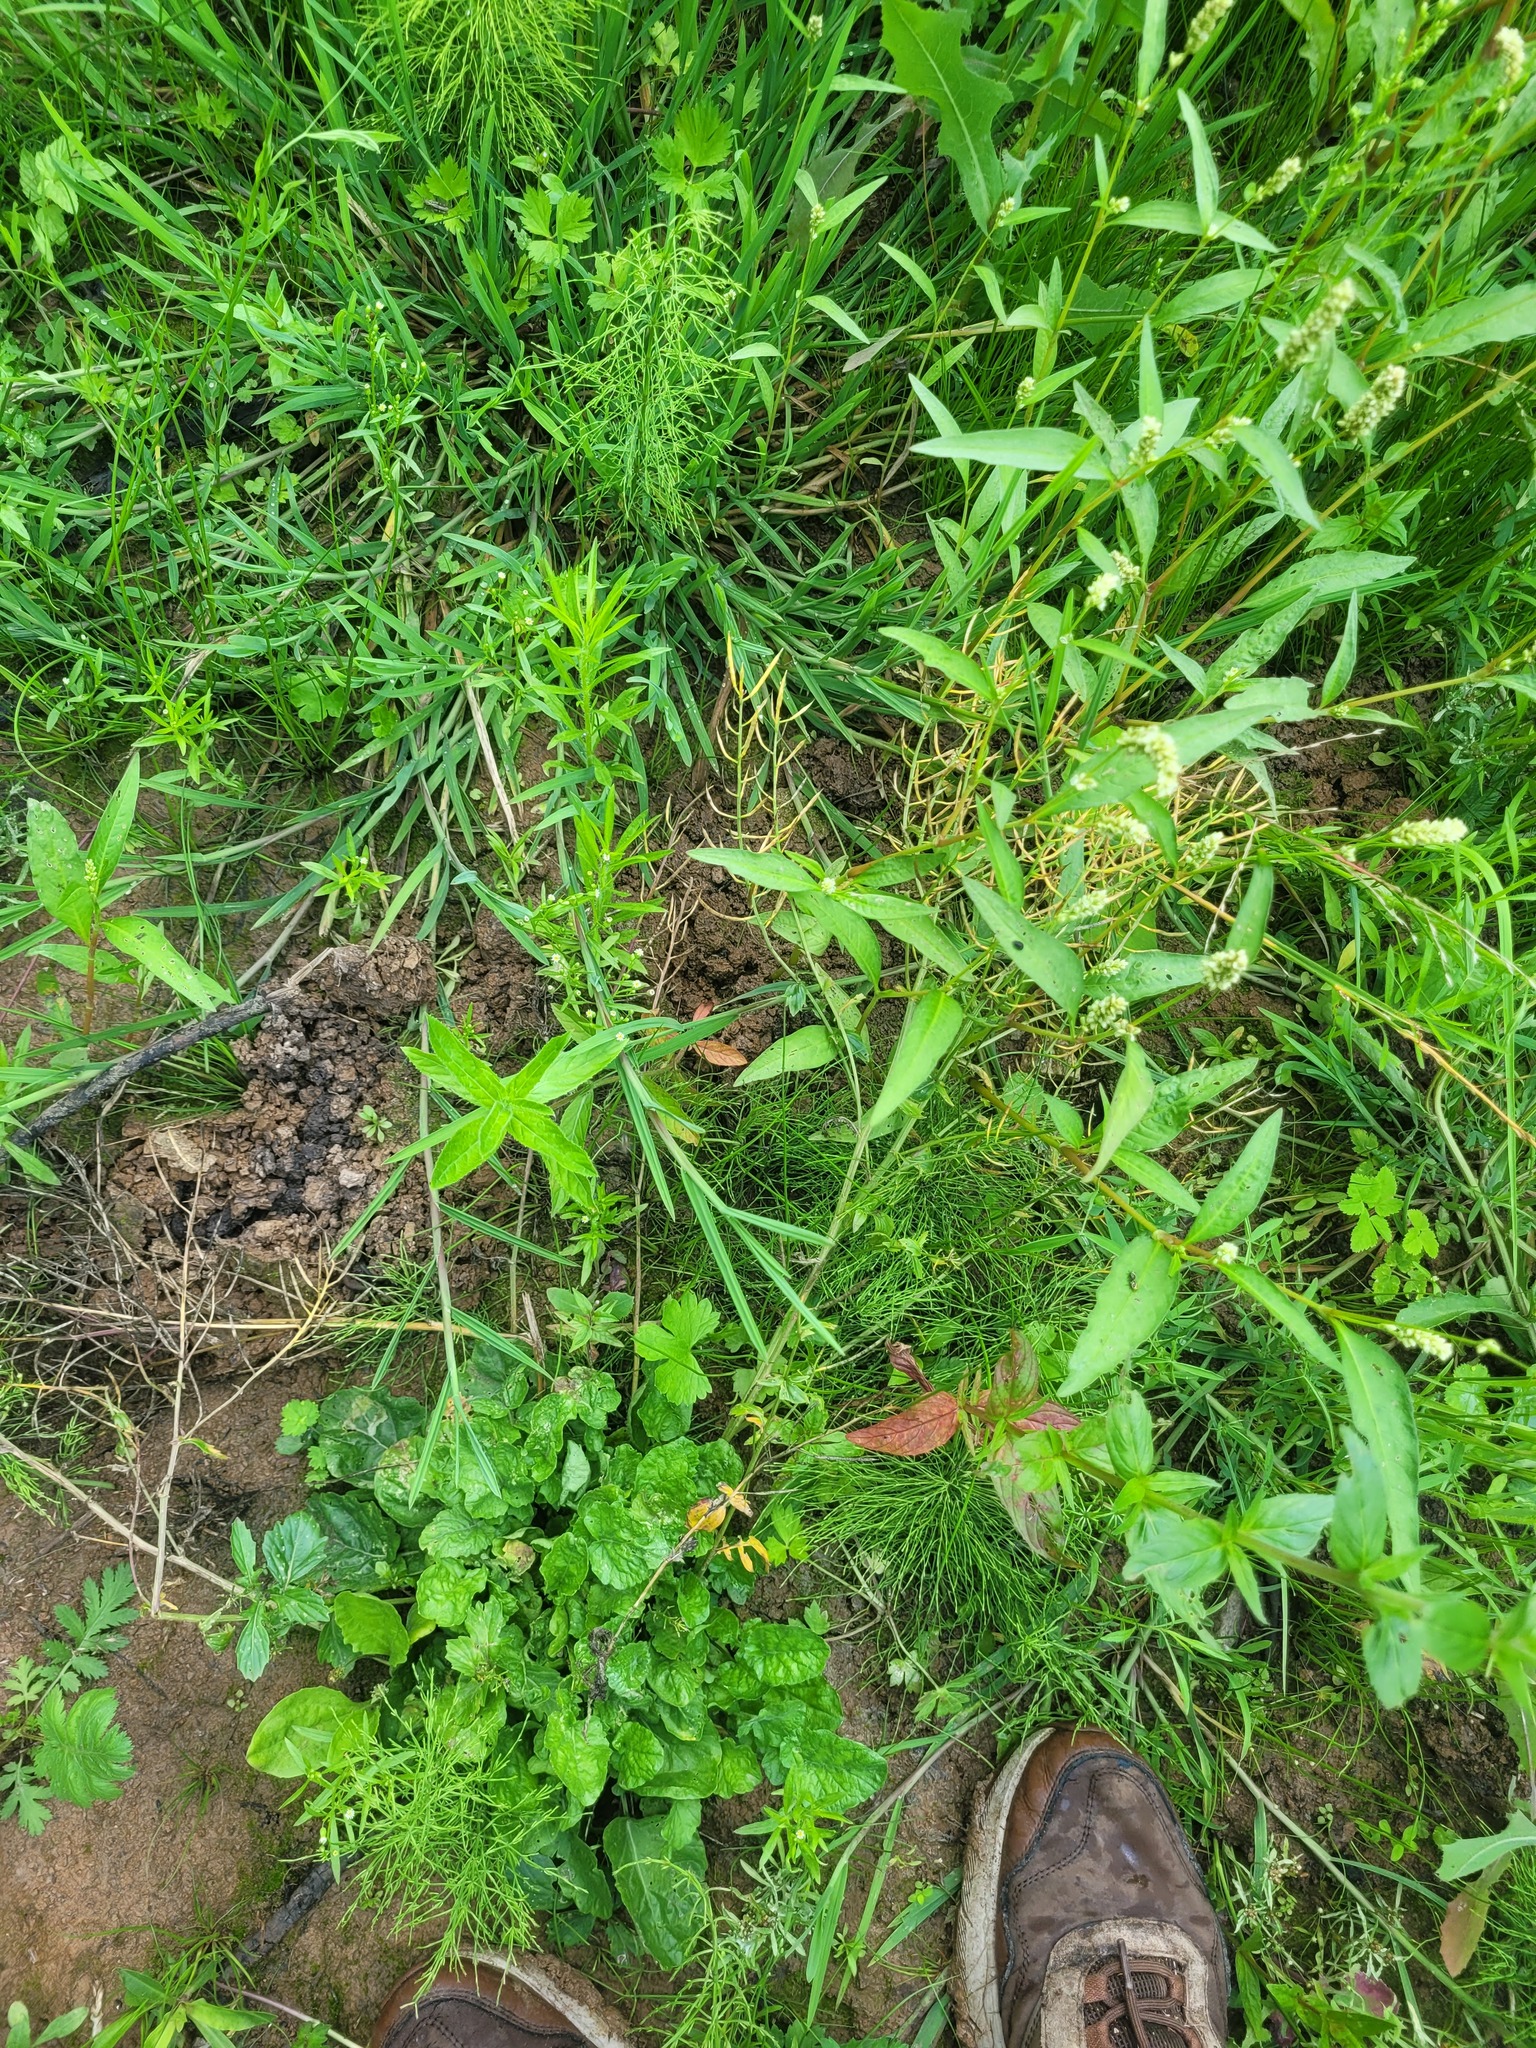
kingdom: Plantae
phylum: Tracheophyta
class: Magnoliopsida
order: Brassicales
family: Brassicaceae
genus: Barbarea
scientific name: Barbarea vulgaris
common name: Cressy-greens
